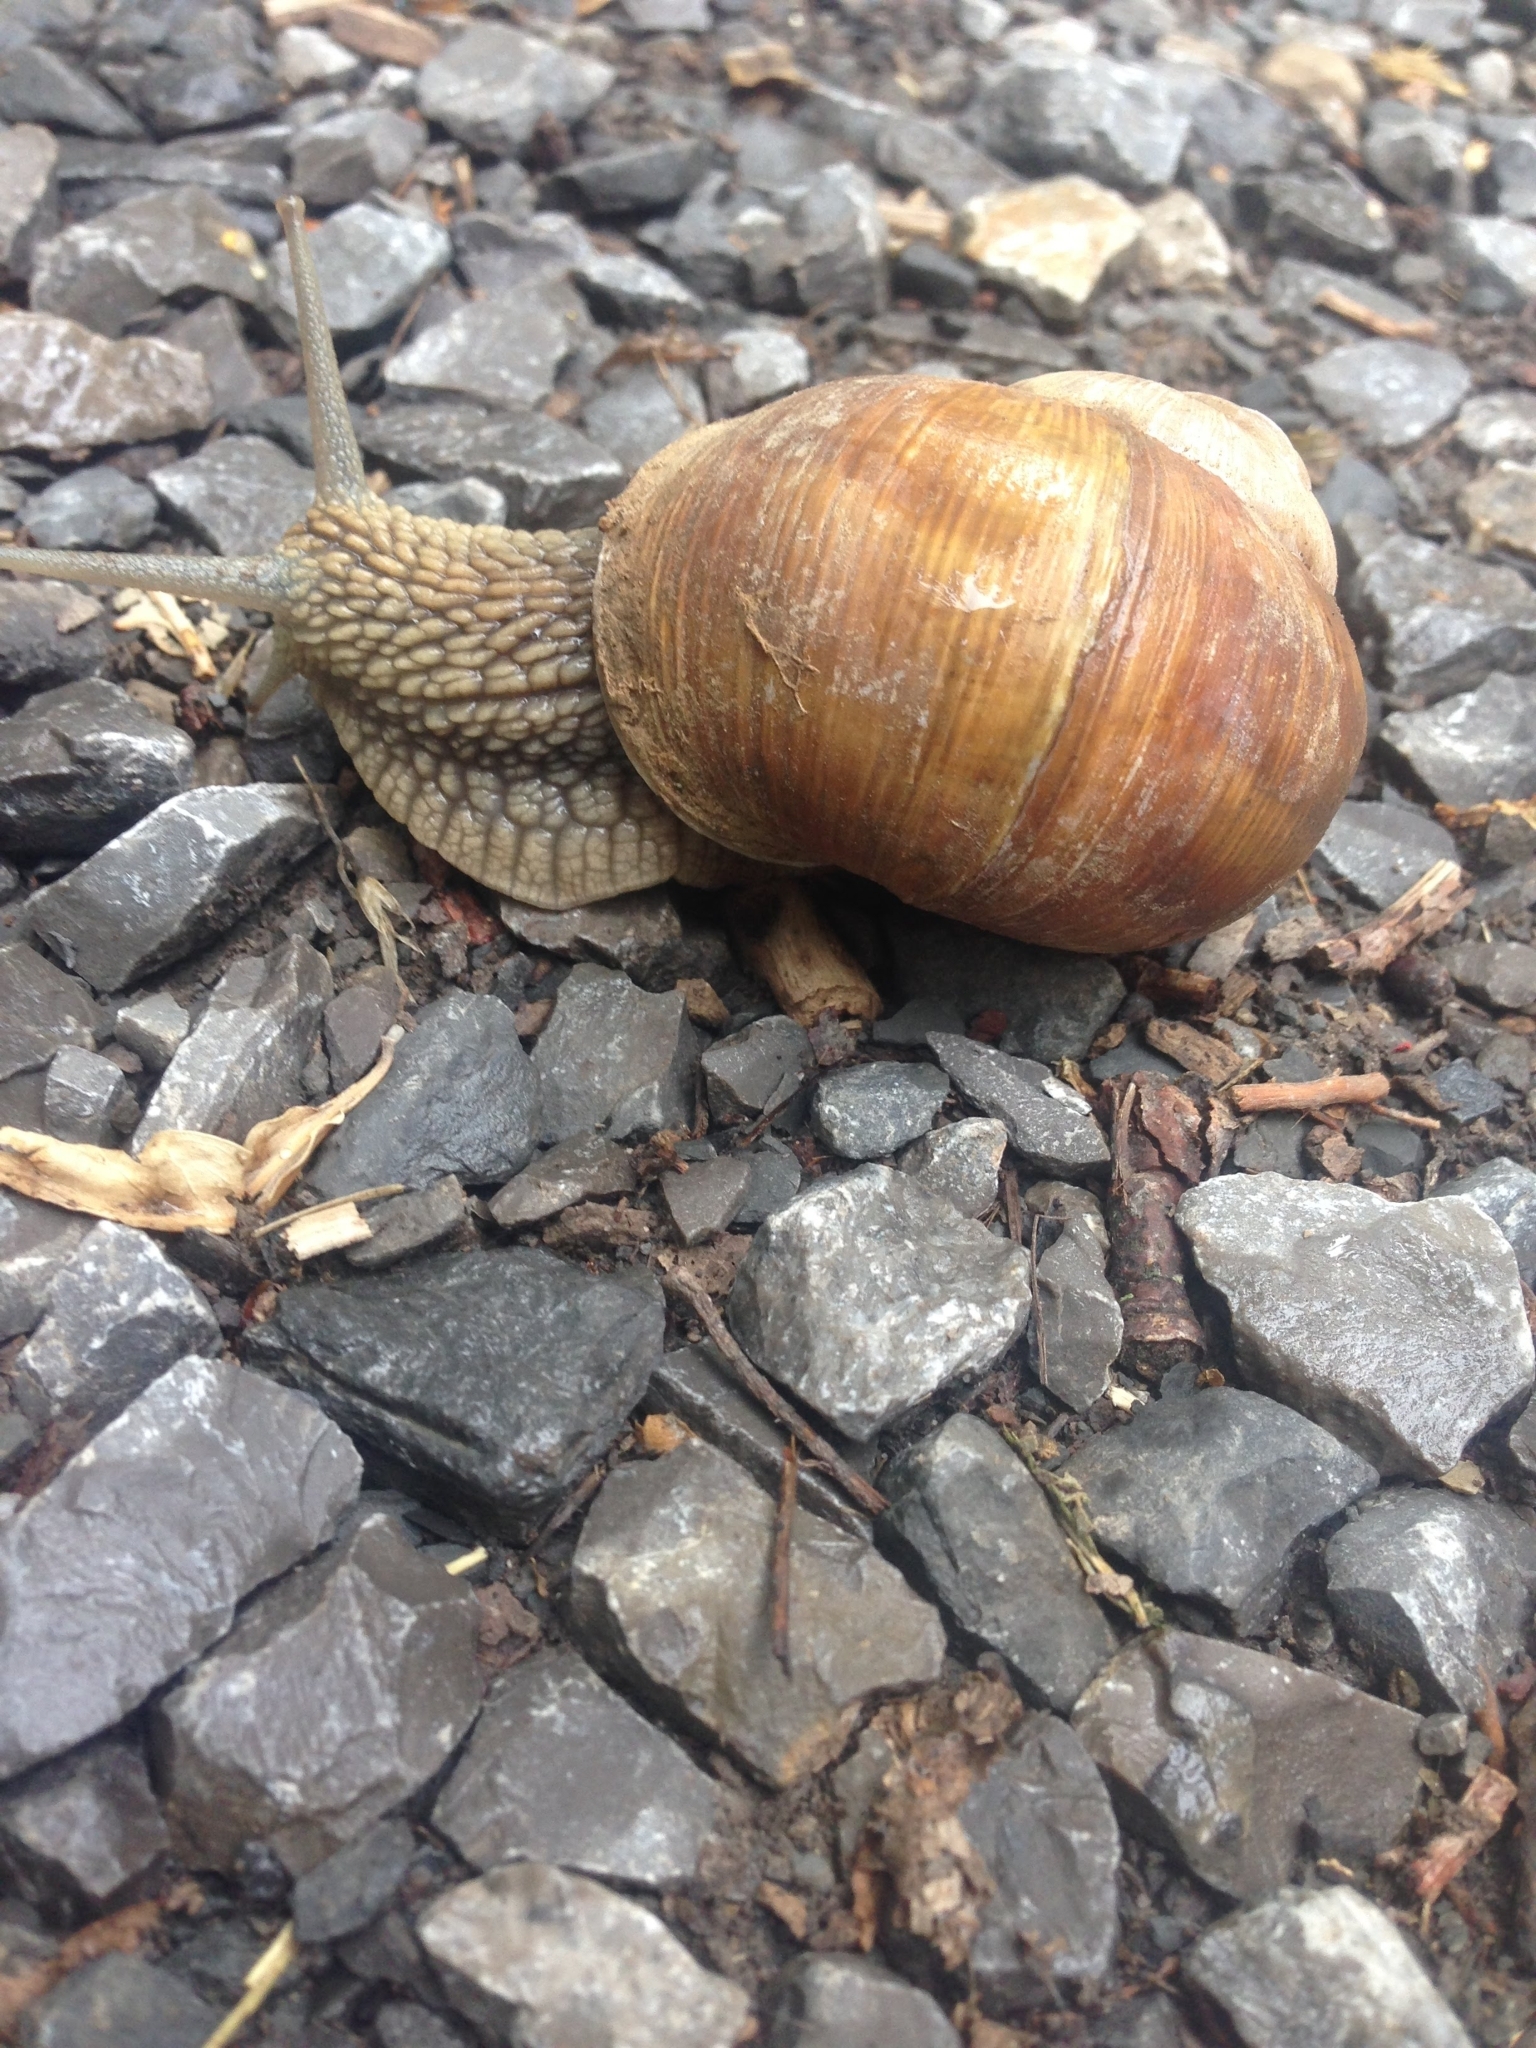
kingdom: Animalia
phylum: Mollusca
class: Gastropoda
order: Stylommatophora
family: Helicidae
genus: Helix
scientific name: Helix pomatia
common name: Roman snail
